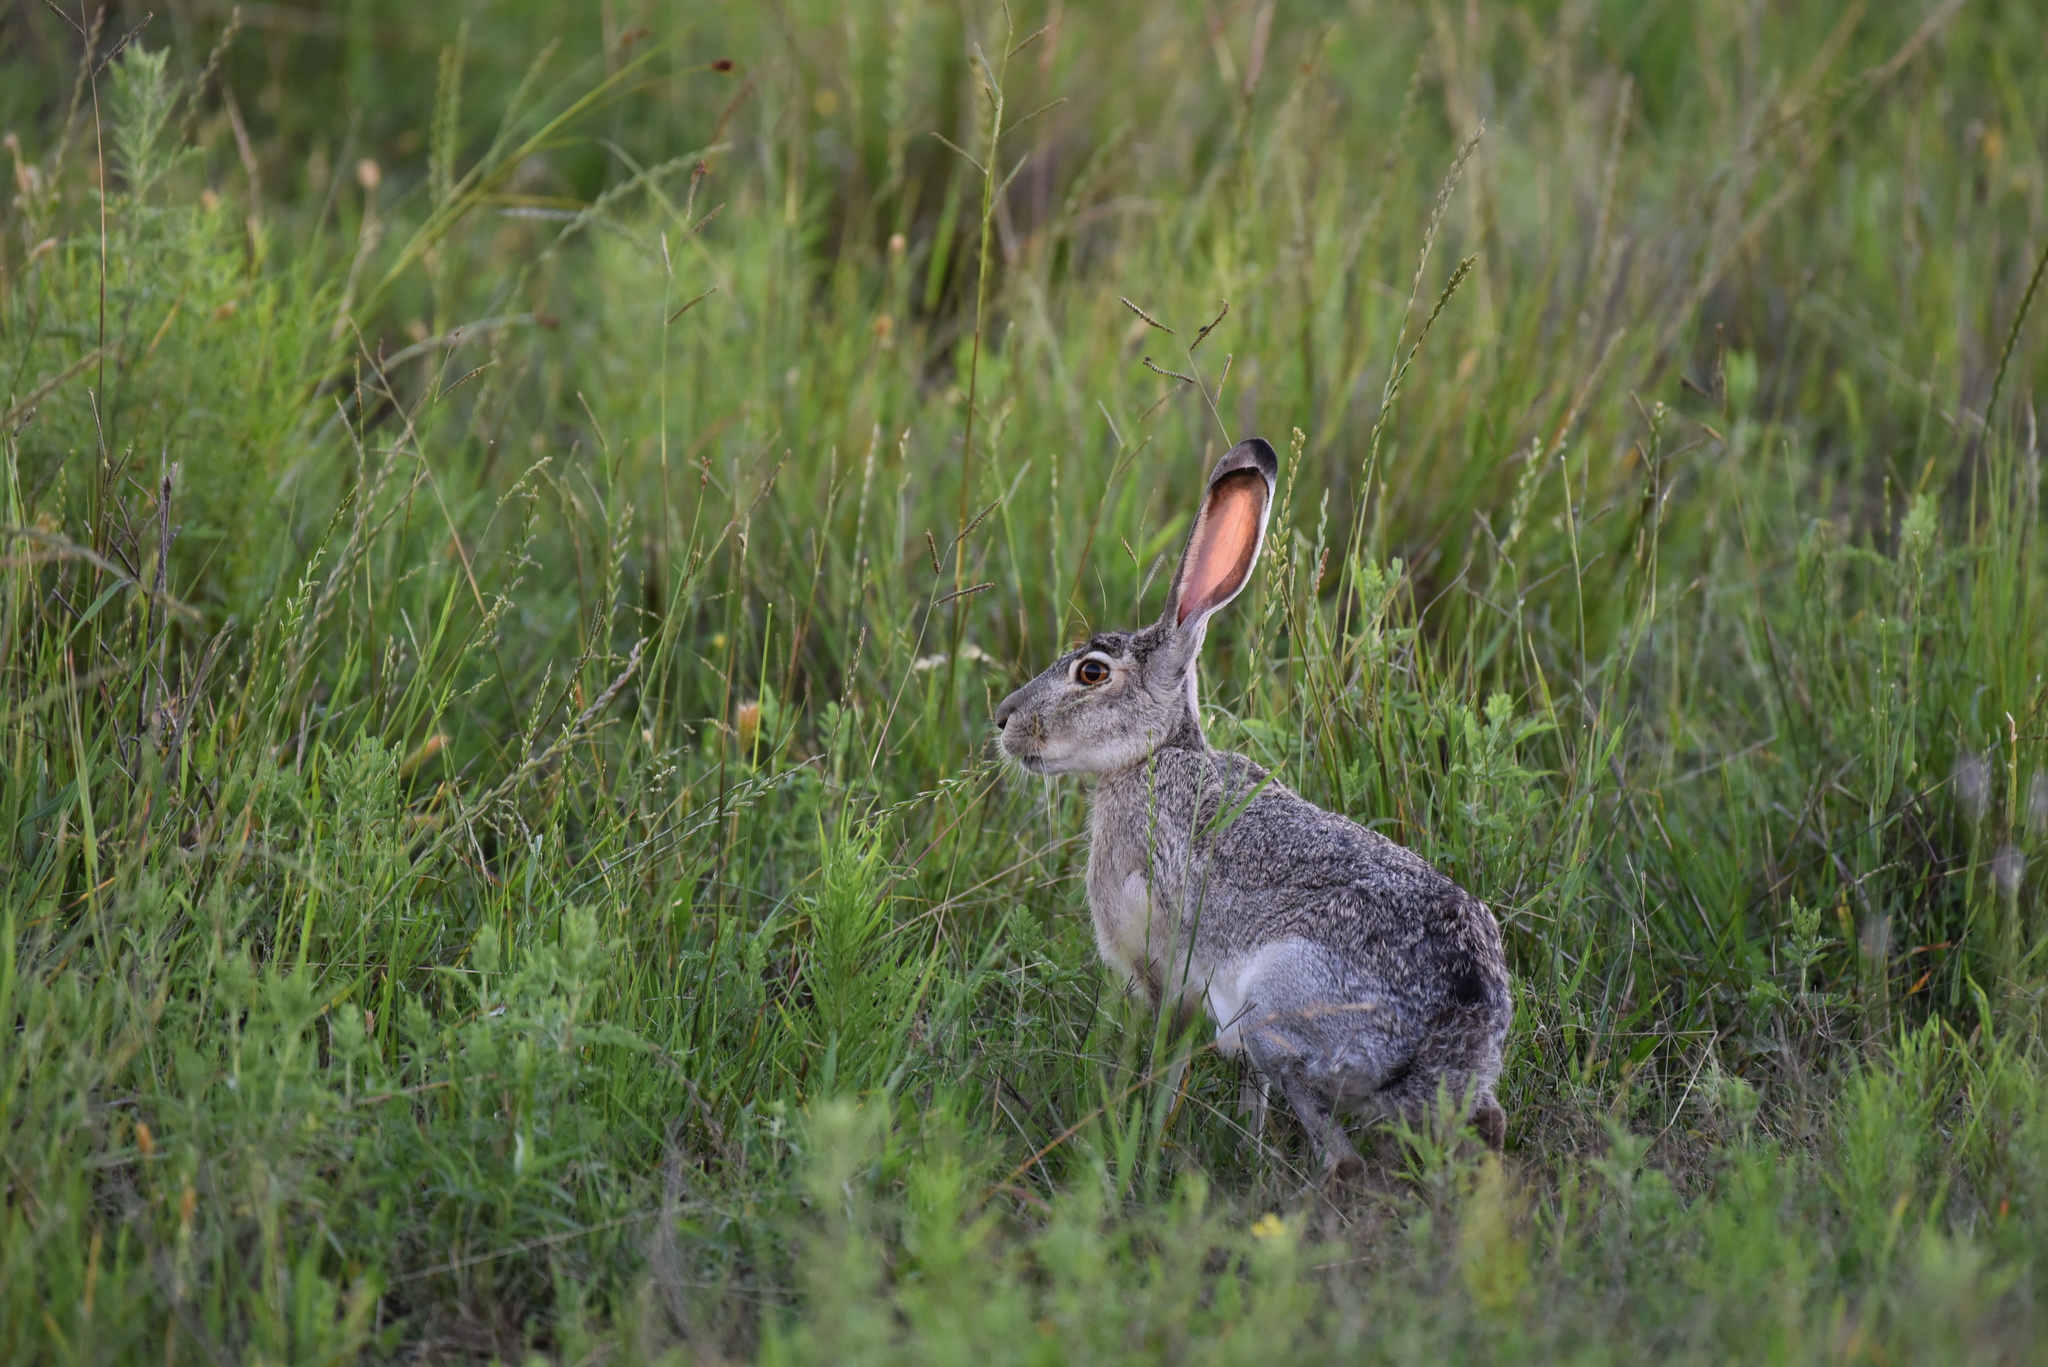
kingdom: Animalia
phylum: Chordata
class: Mammalia
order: Lagomorpha
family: Leporidae
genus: Lepus
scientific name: Lepus californicus
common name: Black-tailed jackrabbit
